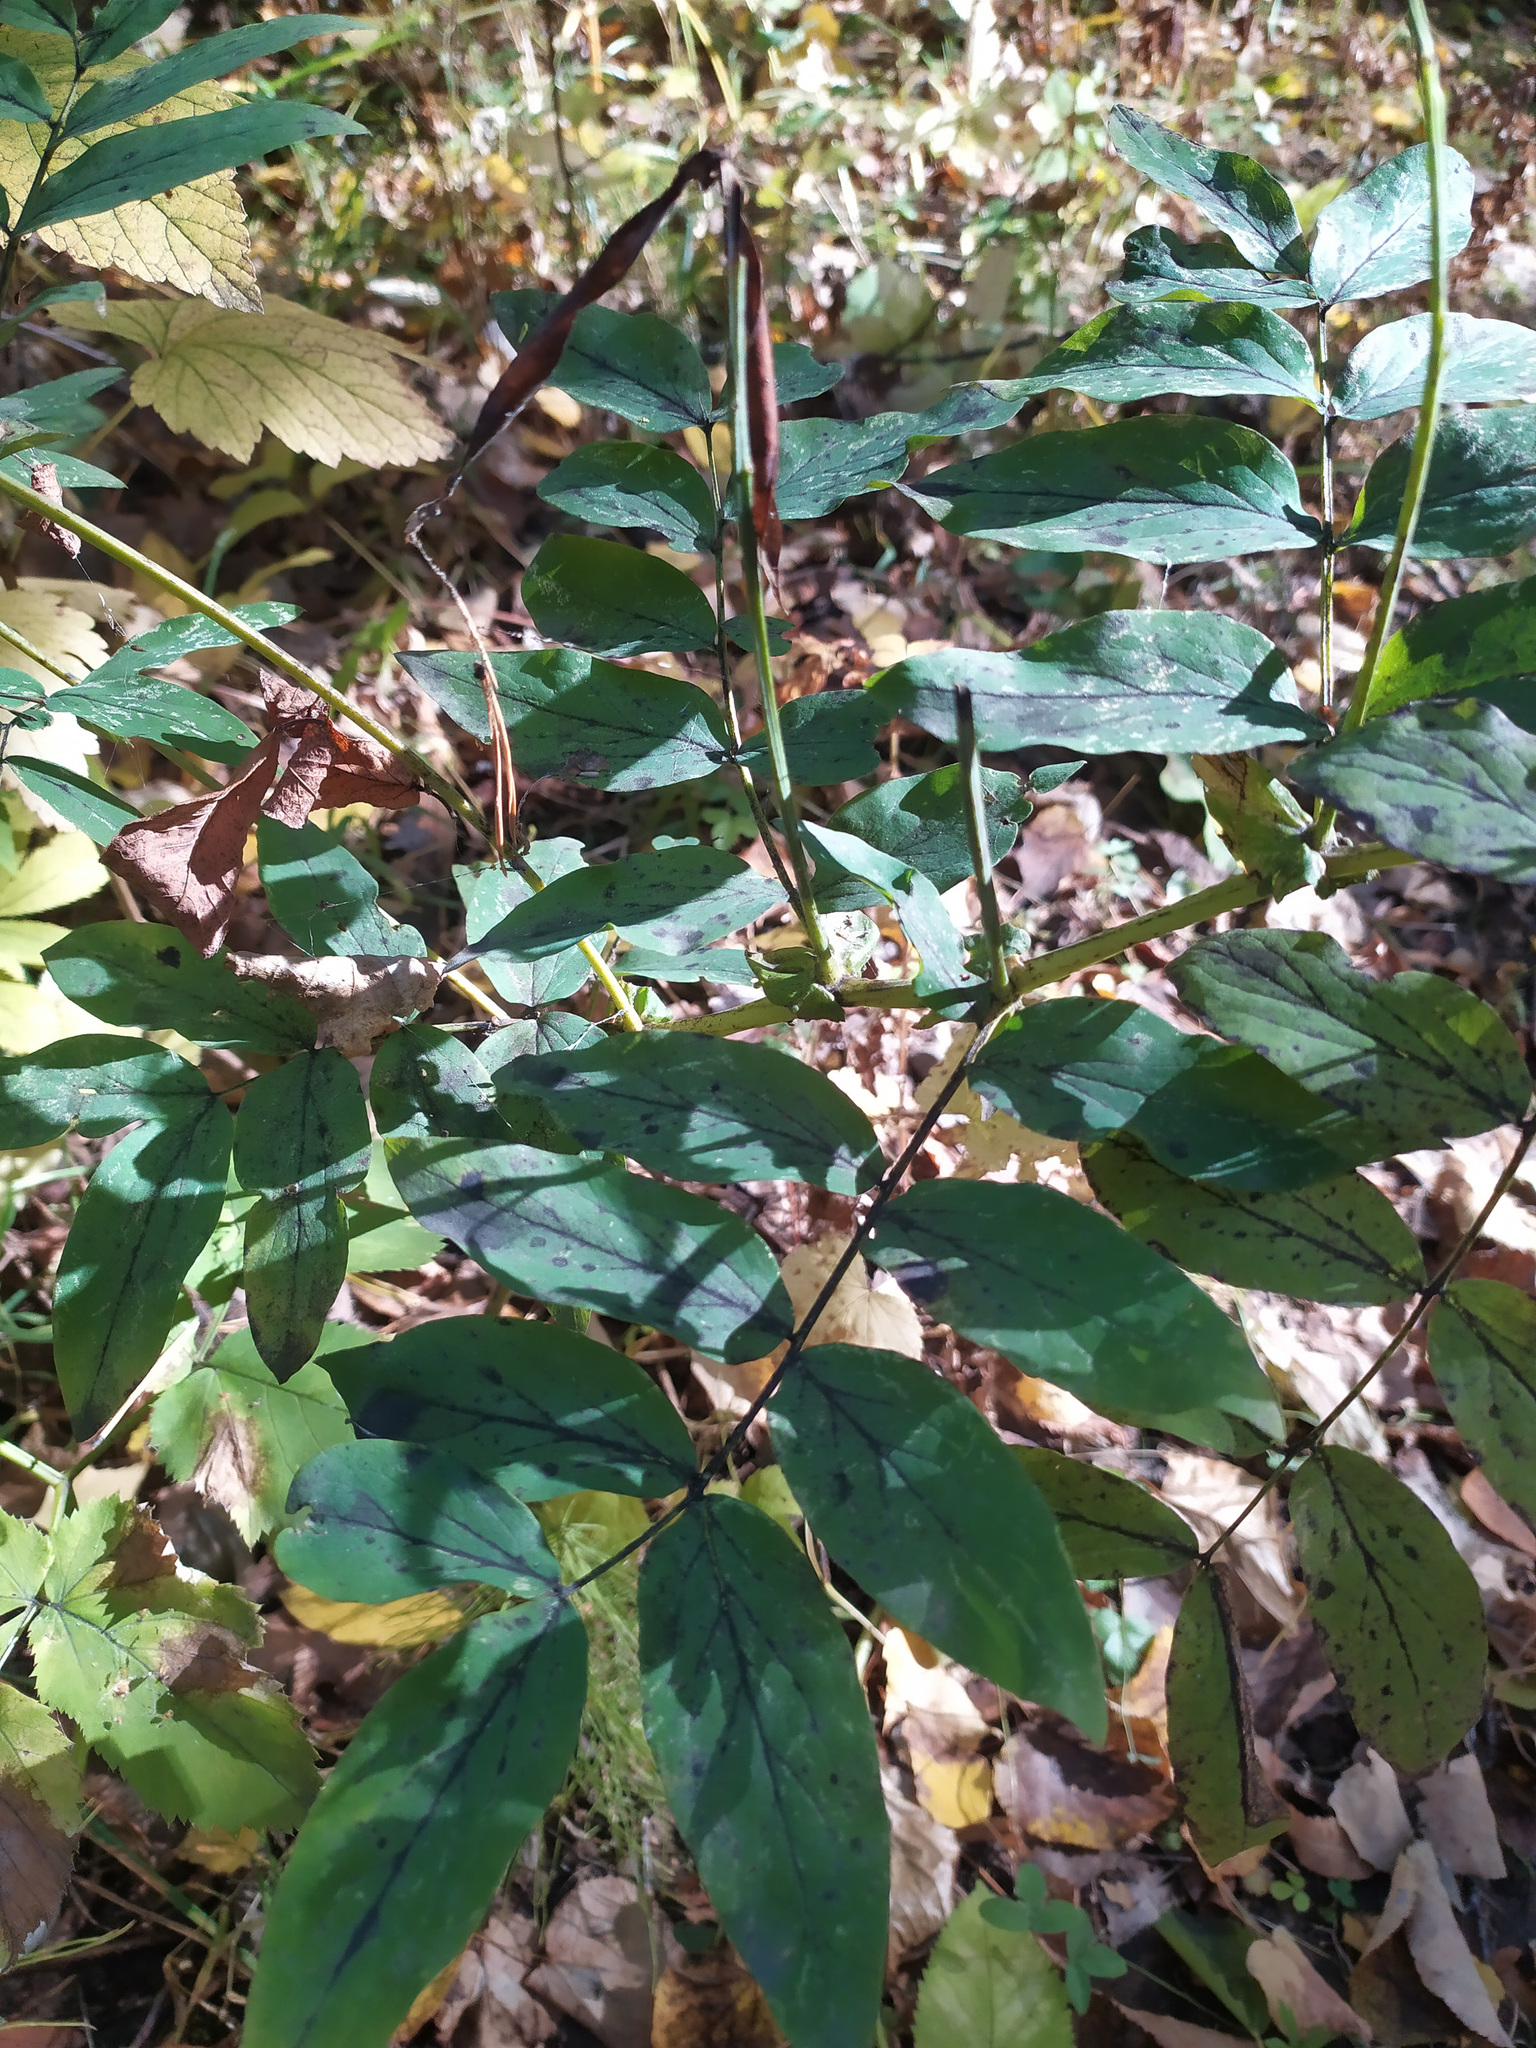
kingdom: Plantae
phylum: Tracheophyta
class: Magnoliopsida
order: Fabales
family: Fabaceae
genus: Lathyrus
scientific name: Lathyrus gmelinii
